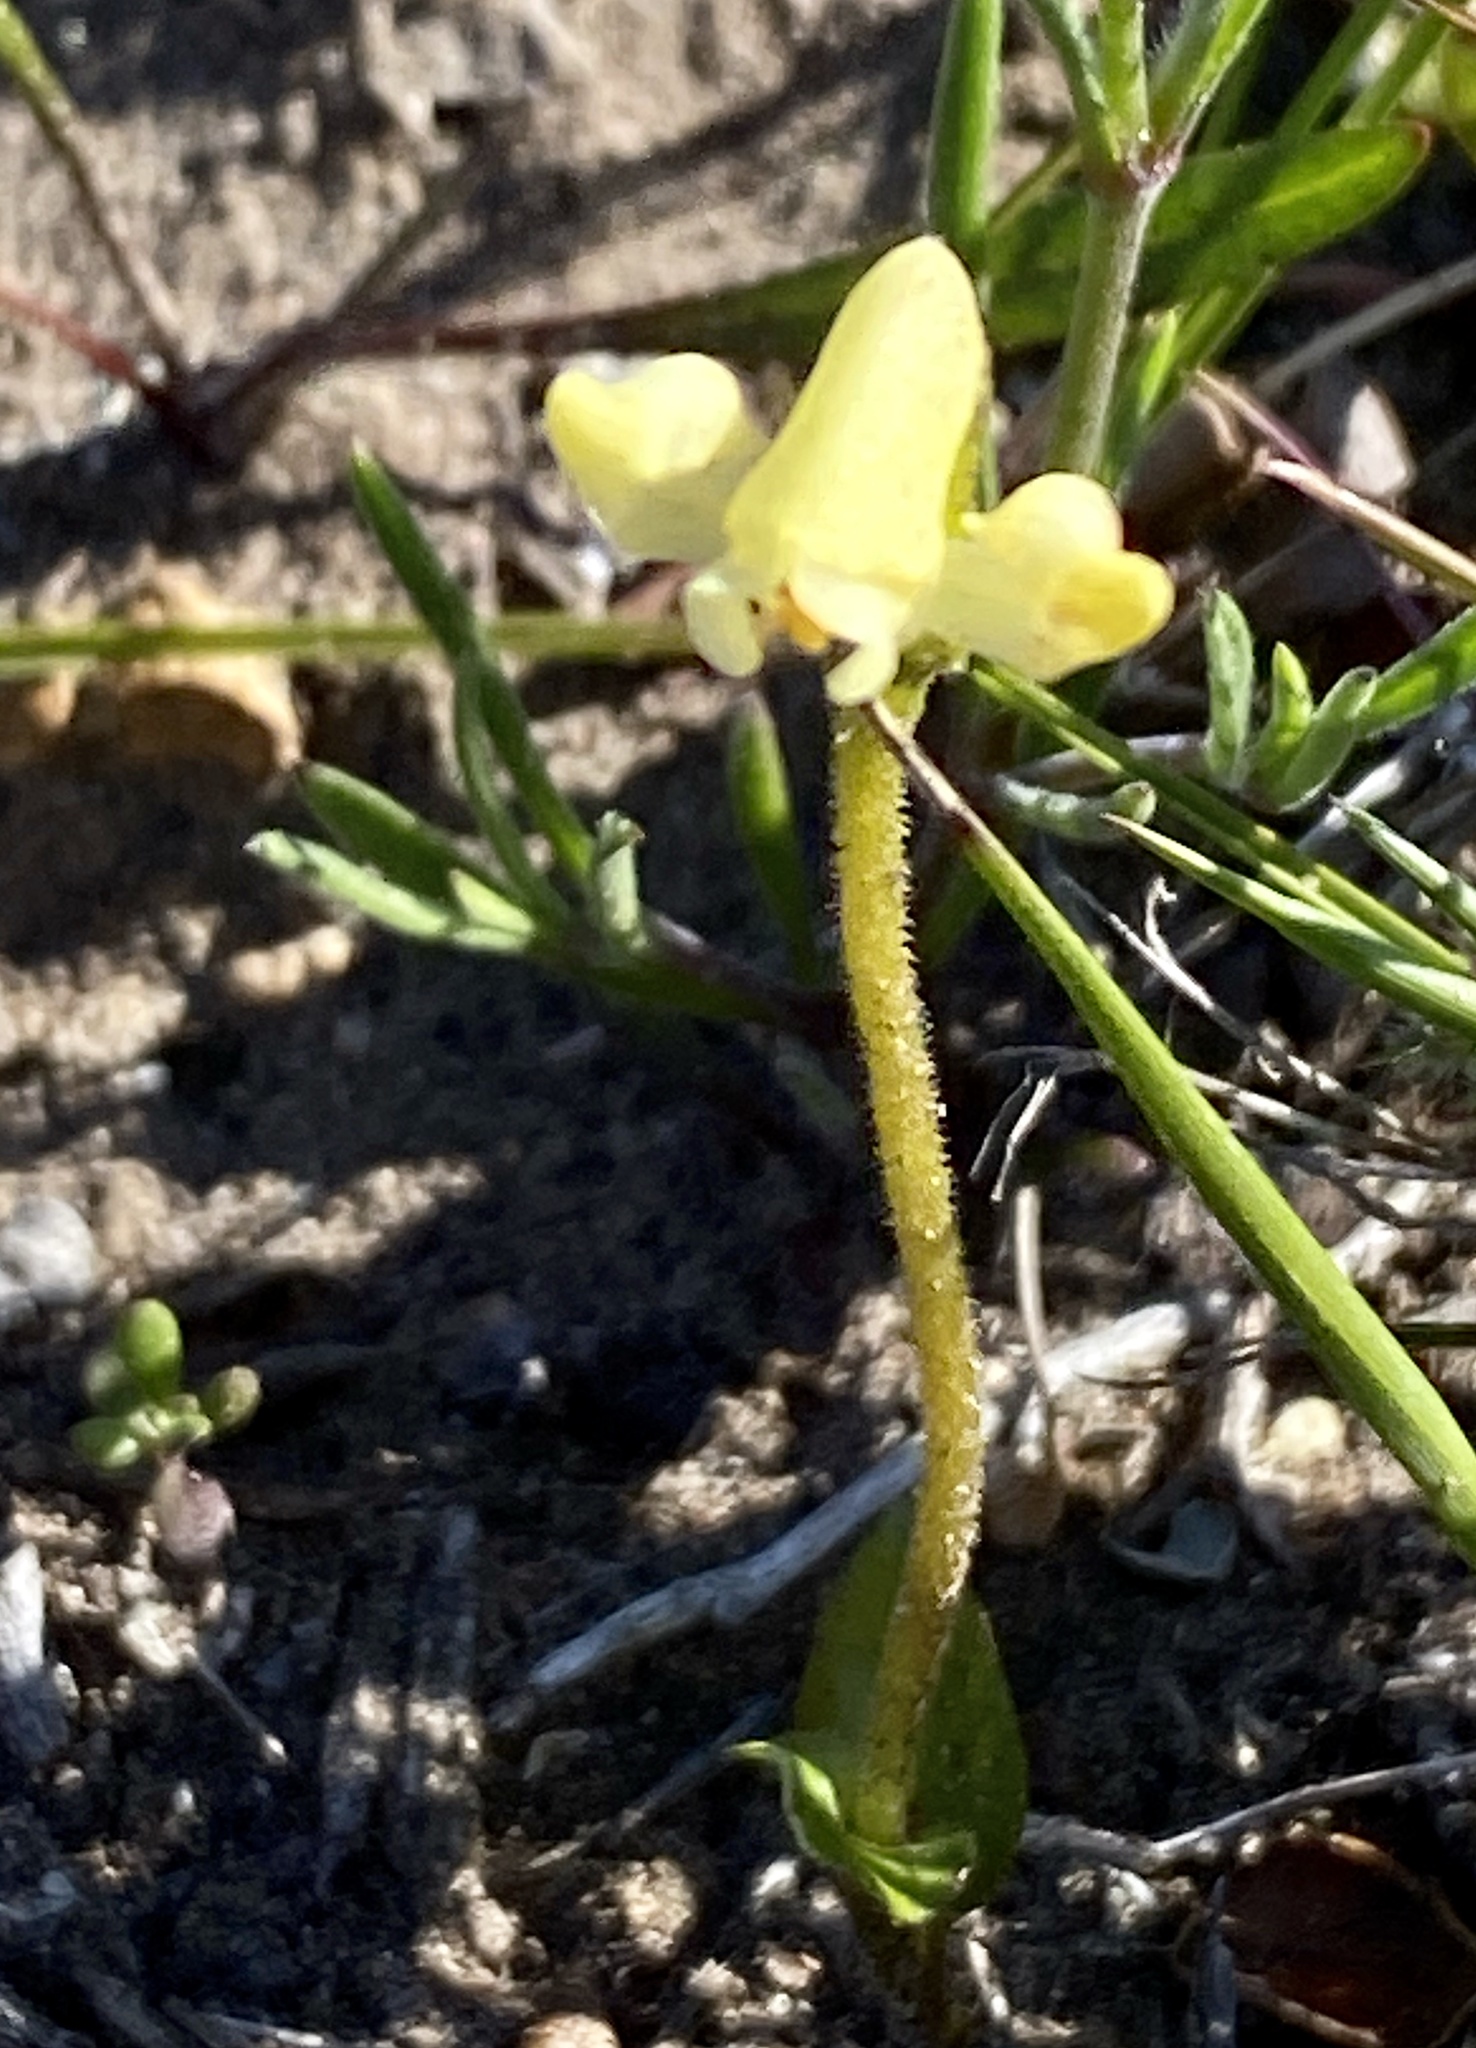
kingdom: Plantae
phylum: Tracheophyta
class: Liliopsida
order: Asparagales
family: Orchidaceae
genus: Disperis
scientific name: Disperis villosa
